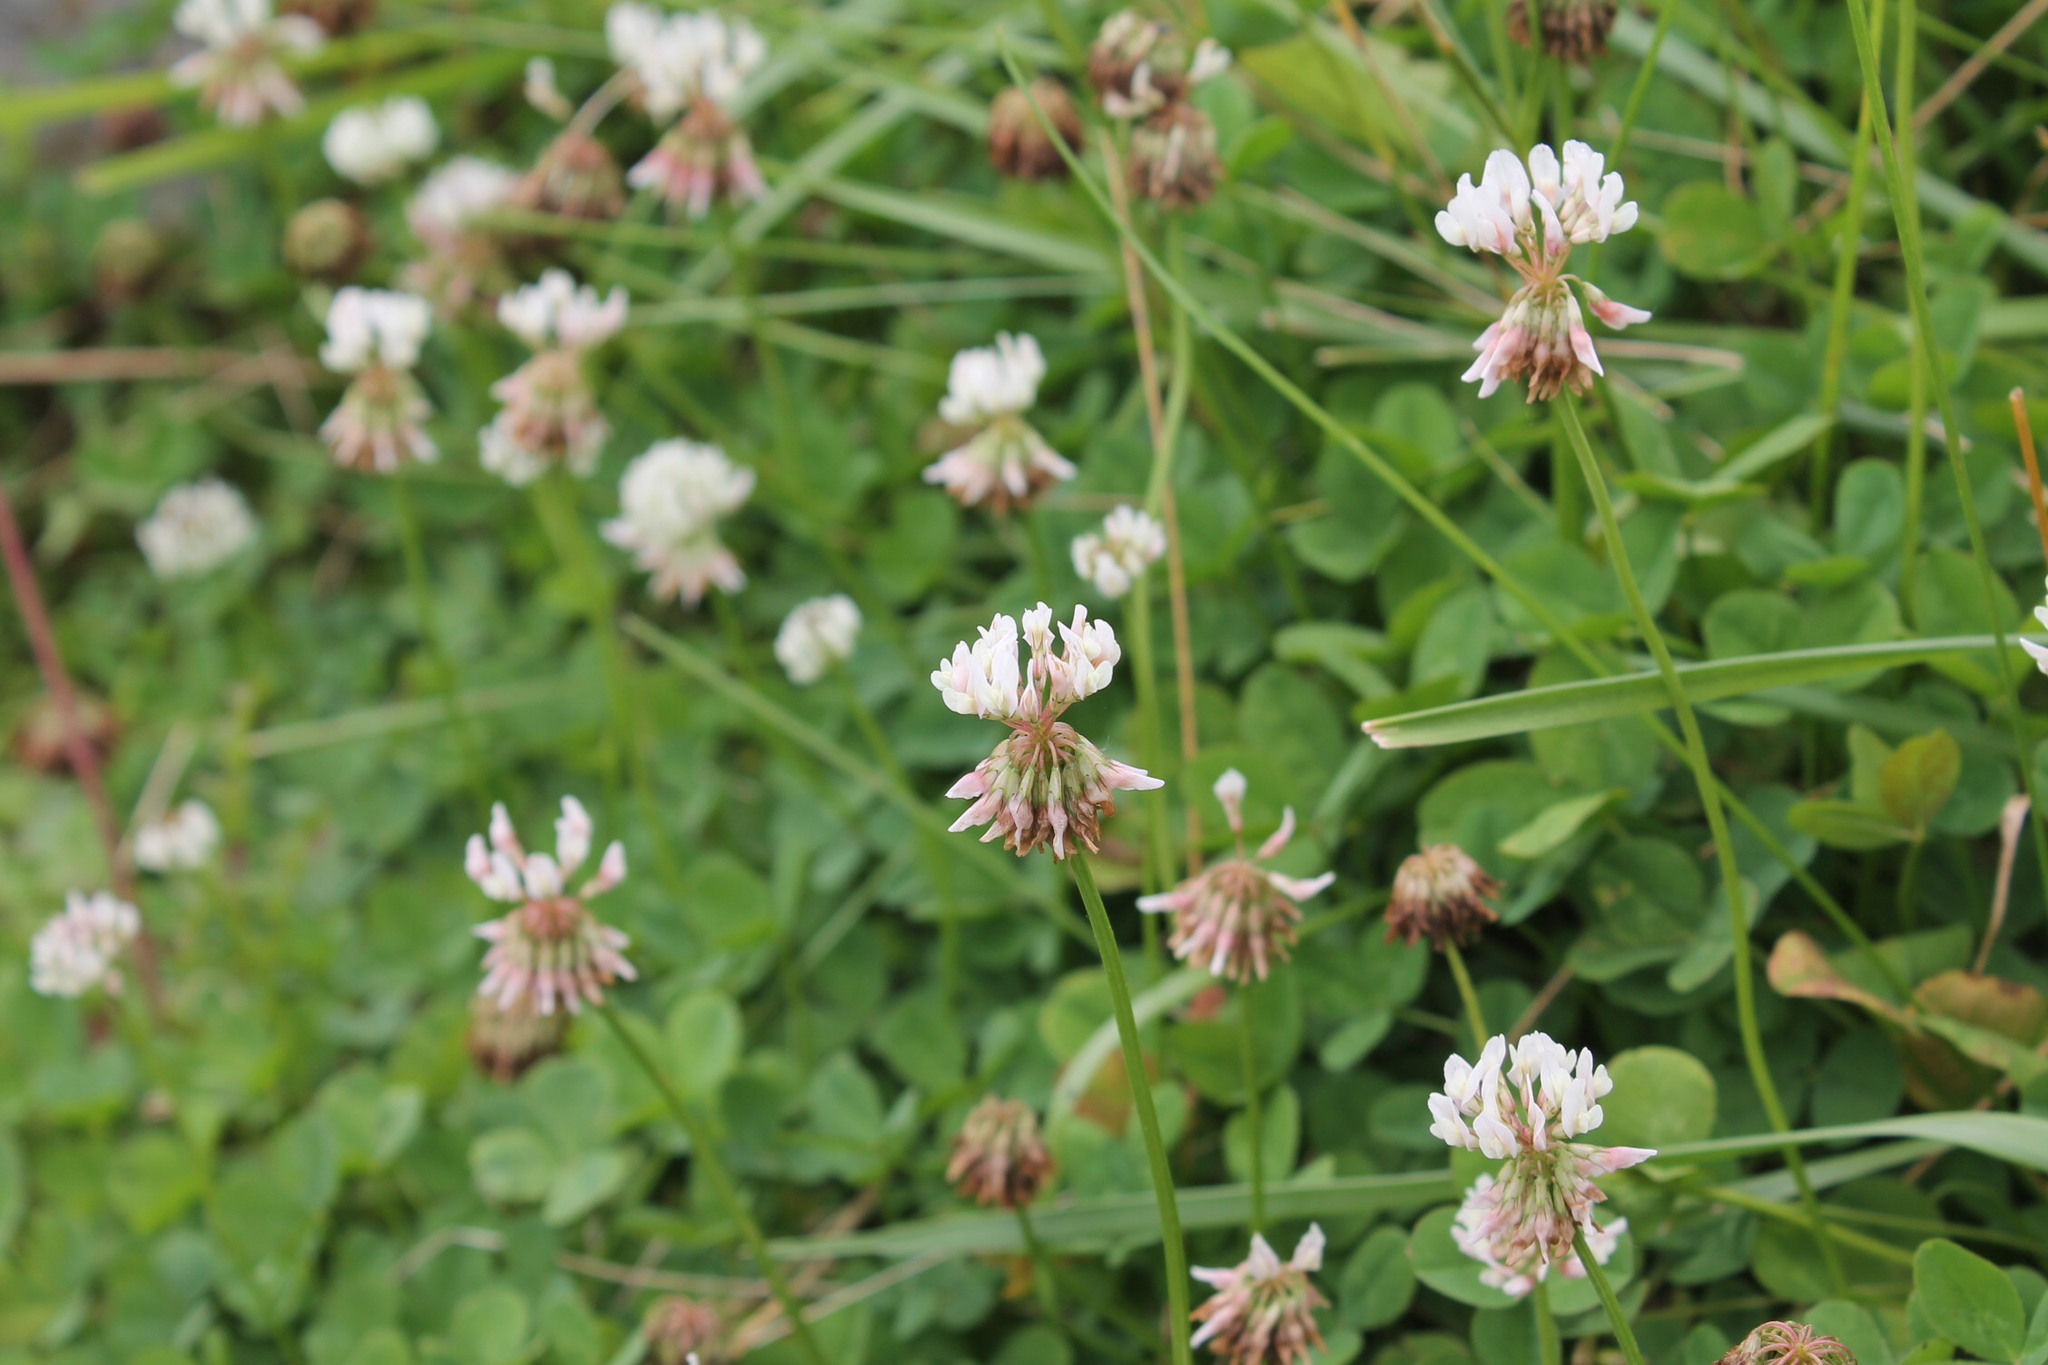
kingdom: Plantae
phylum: Tracheophyta
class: Magnoliopsida
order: Fabales
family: Fabaceae
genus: Trifolium
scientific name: Trifolium repens
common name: White clover
